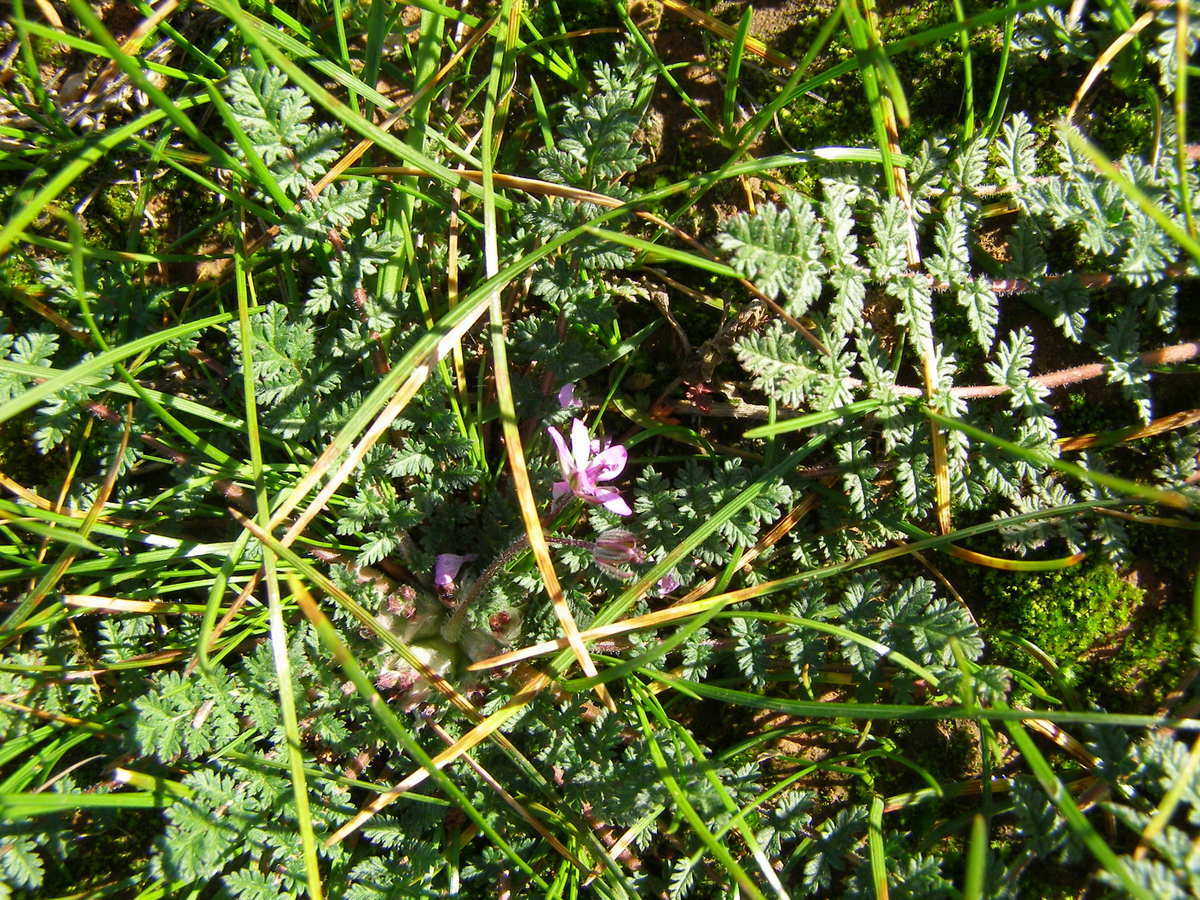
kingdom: Plantae
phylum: Tracheophyta
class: Magnoliopsida
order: Geraniales
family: Geraniaceae
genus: Erodium
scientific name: Erodium cicutarium
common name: Common stork's-bill
